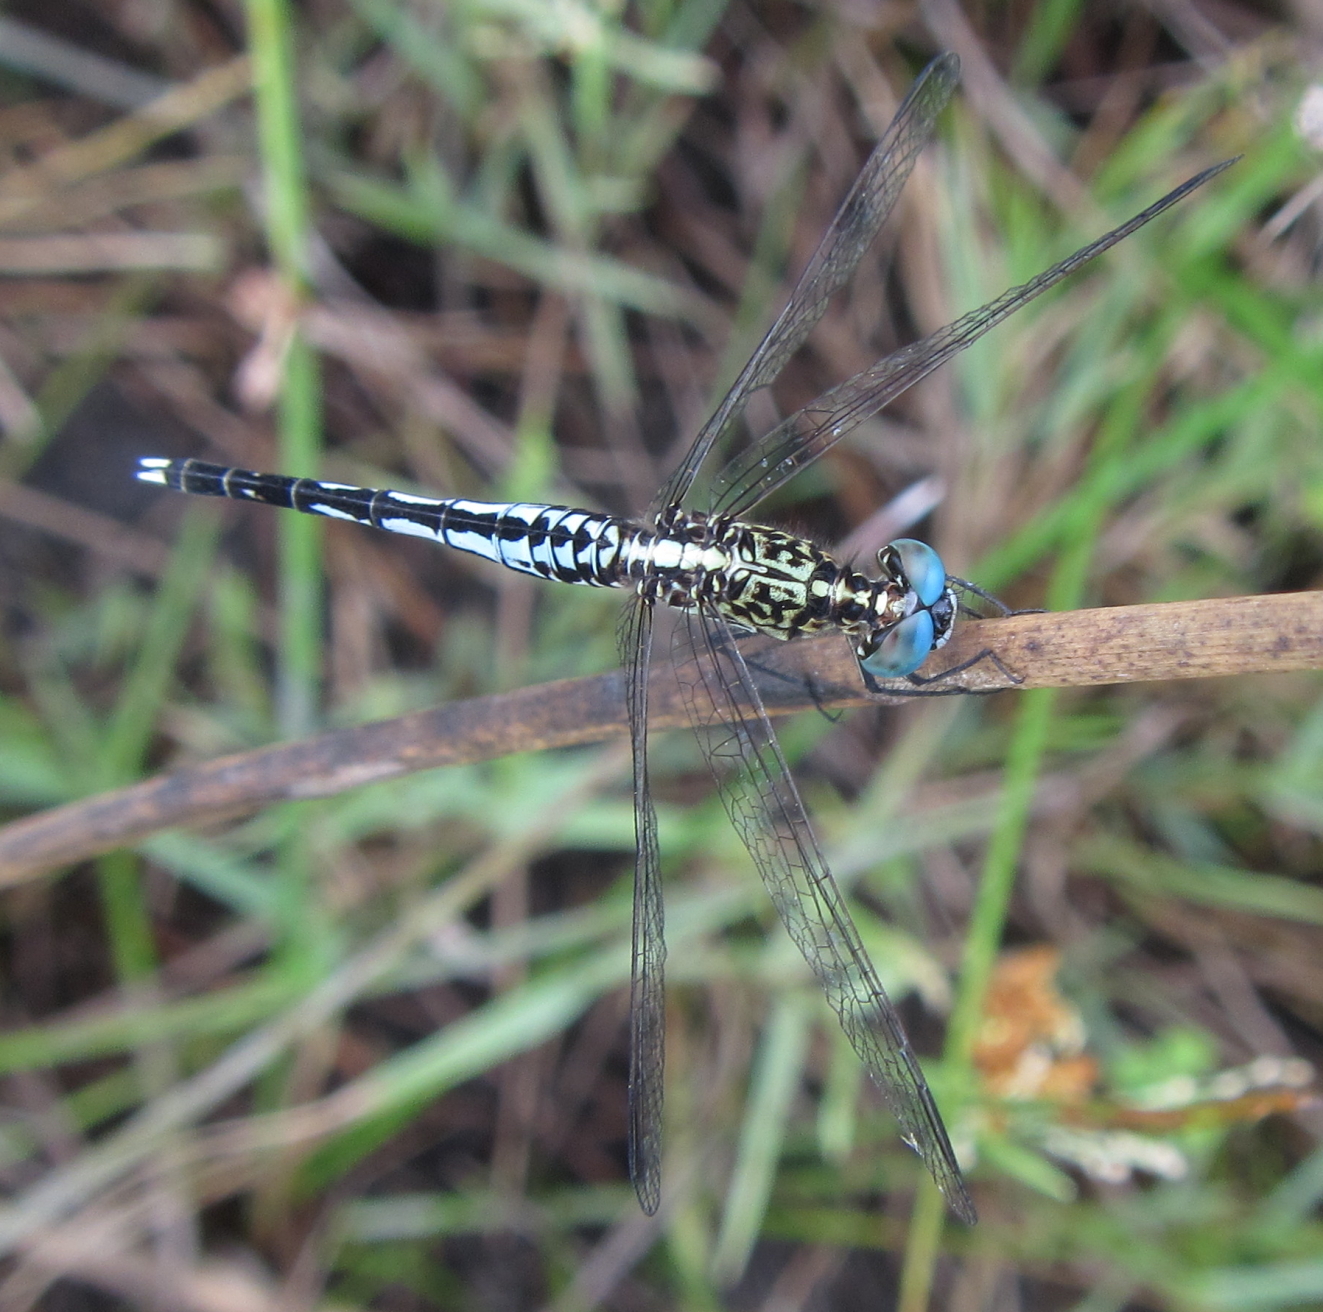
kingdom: Animalia
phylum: Arthropoda
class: Insecta
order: Odonata
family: Libellulidae
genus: Acisoma
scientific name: Acisoma inflatum
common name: Stout pintail
